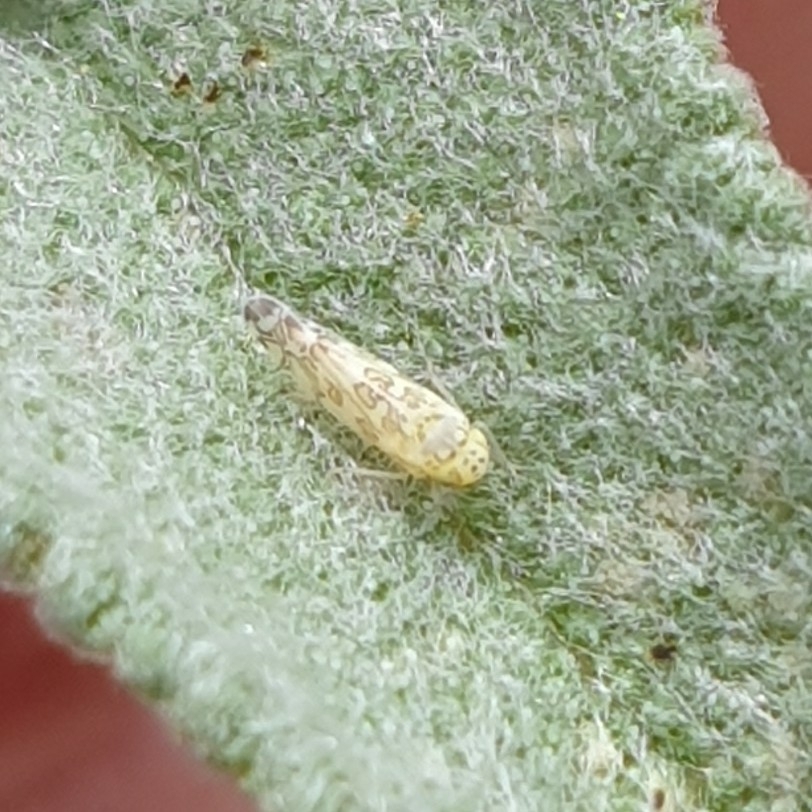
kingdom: Animalia
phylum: Arthropoda
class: Insecta
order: Hemiptera
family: Cicadellidae
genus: Eupteryx
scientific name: Eupteryx decemnotata
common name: Ligurian leafhopper
